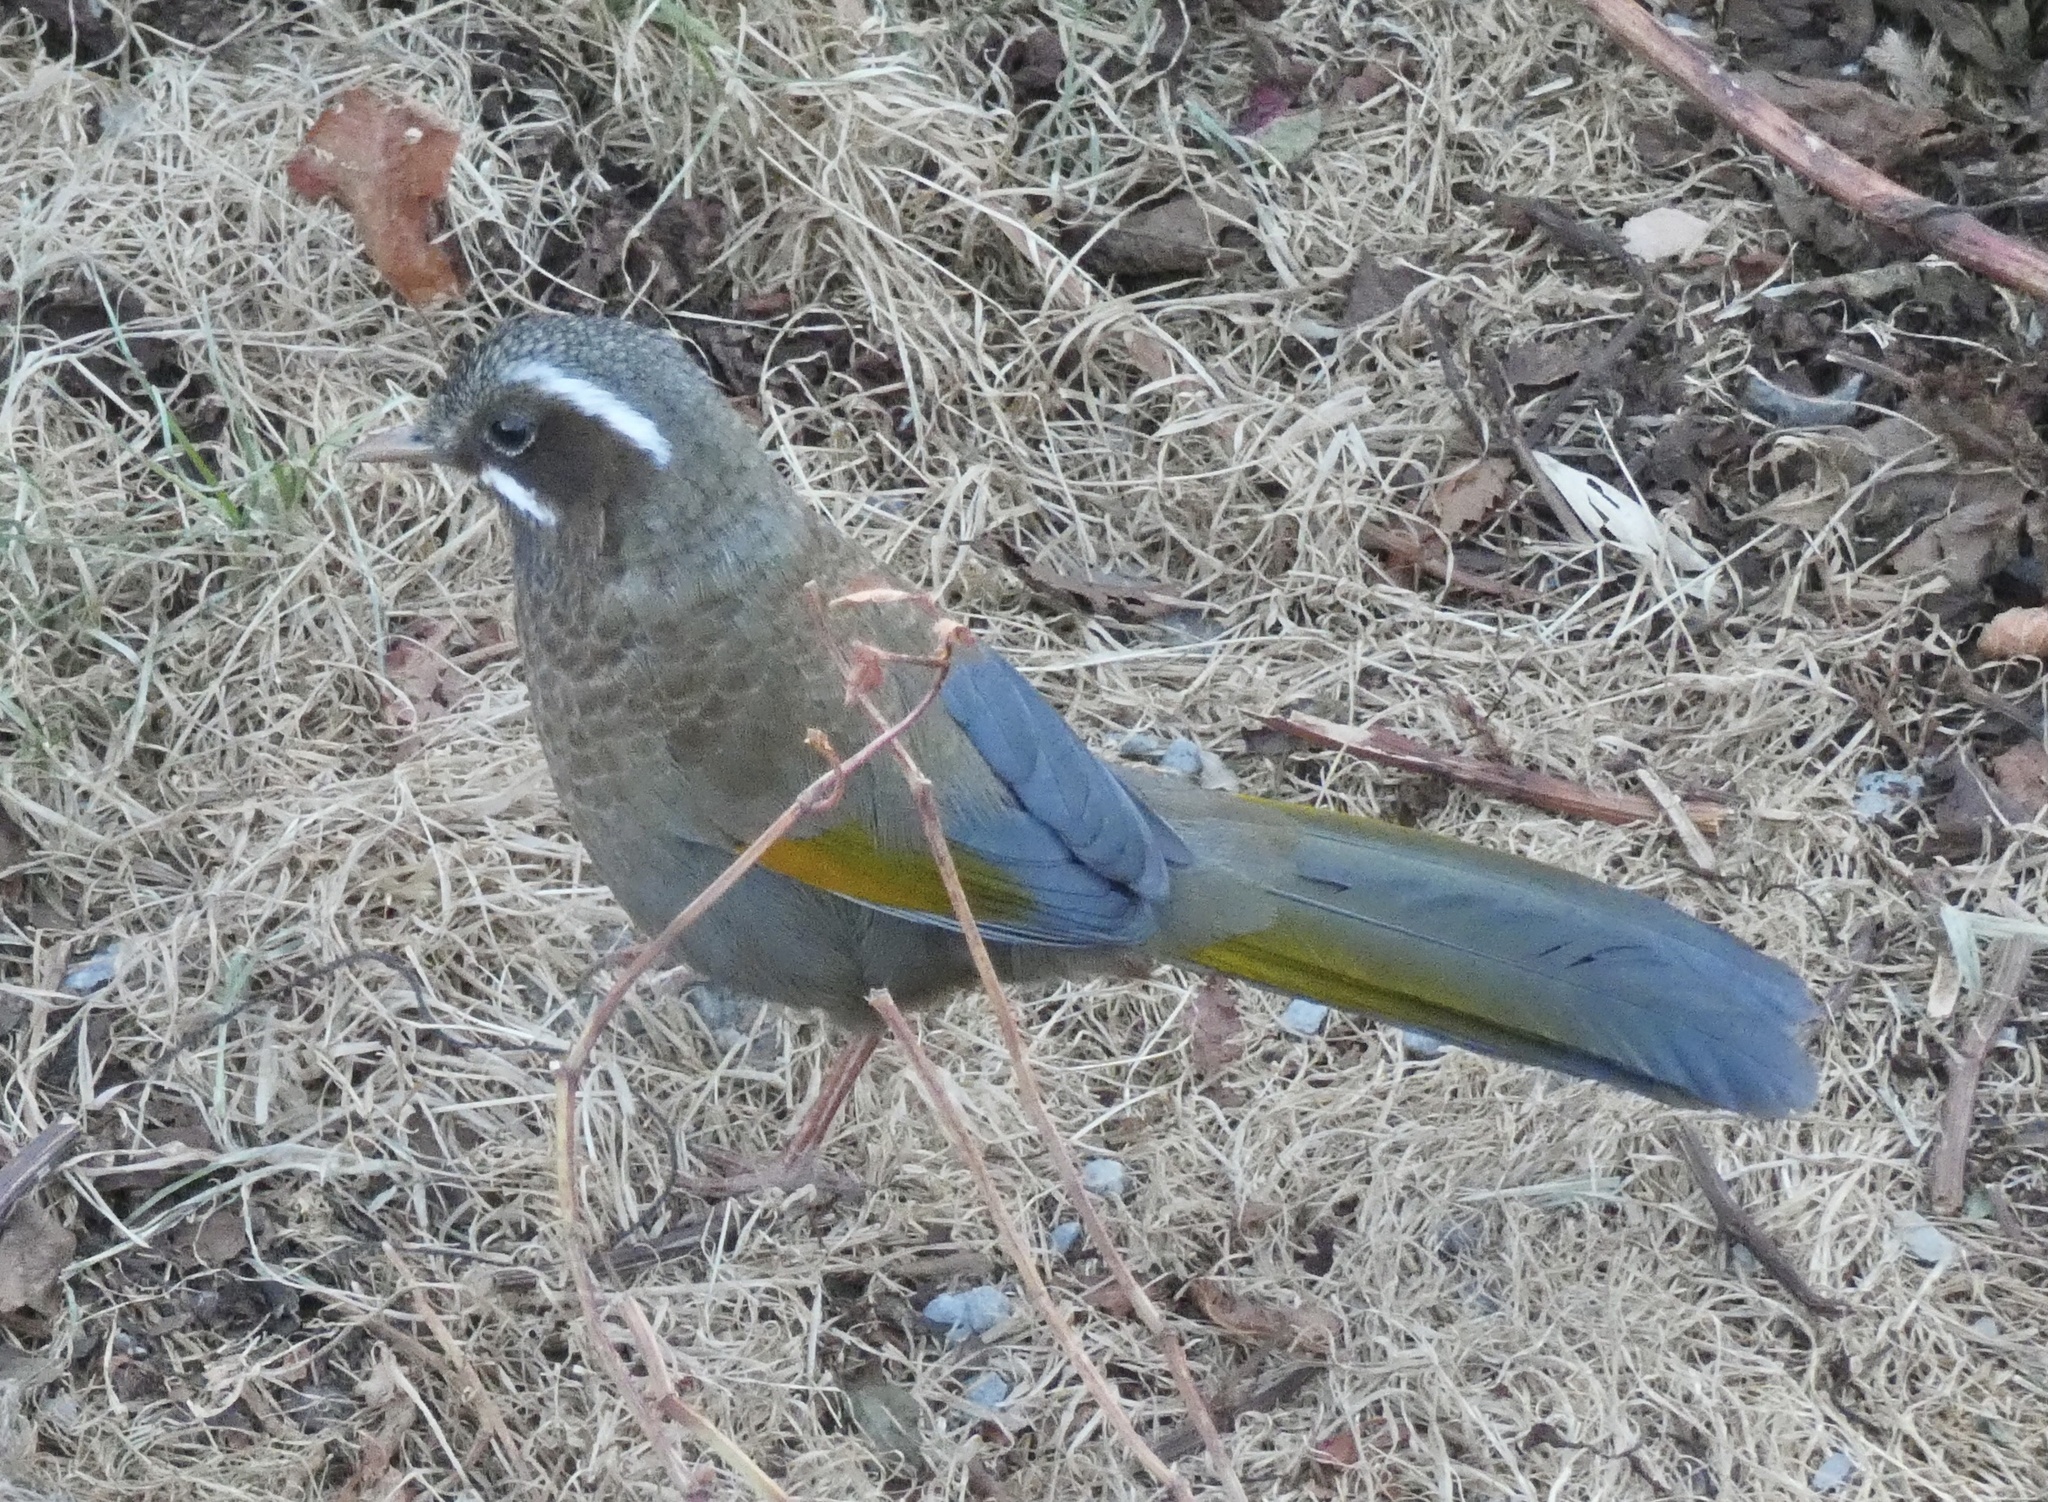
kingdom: Animalia
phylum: Chordata
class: Aves
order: Passeriformes
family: Leiothrichidae
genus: Trochalopteron
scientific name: Trochalopteron morrisonianum
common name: White-whiskered laughingthrush
